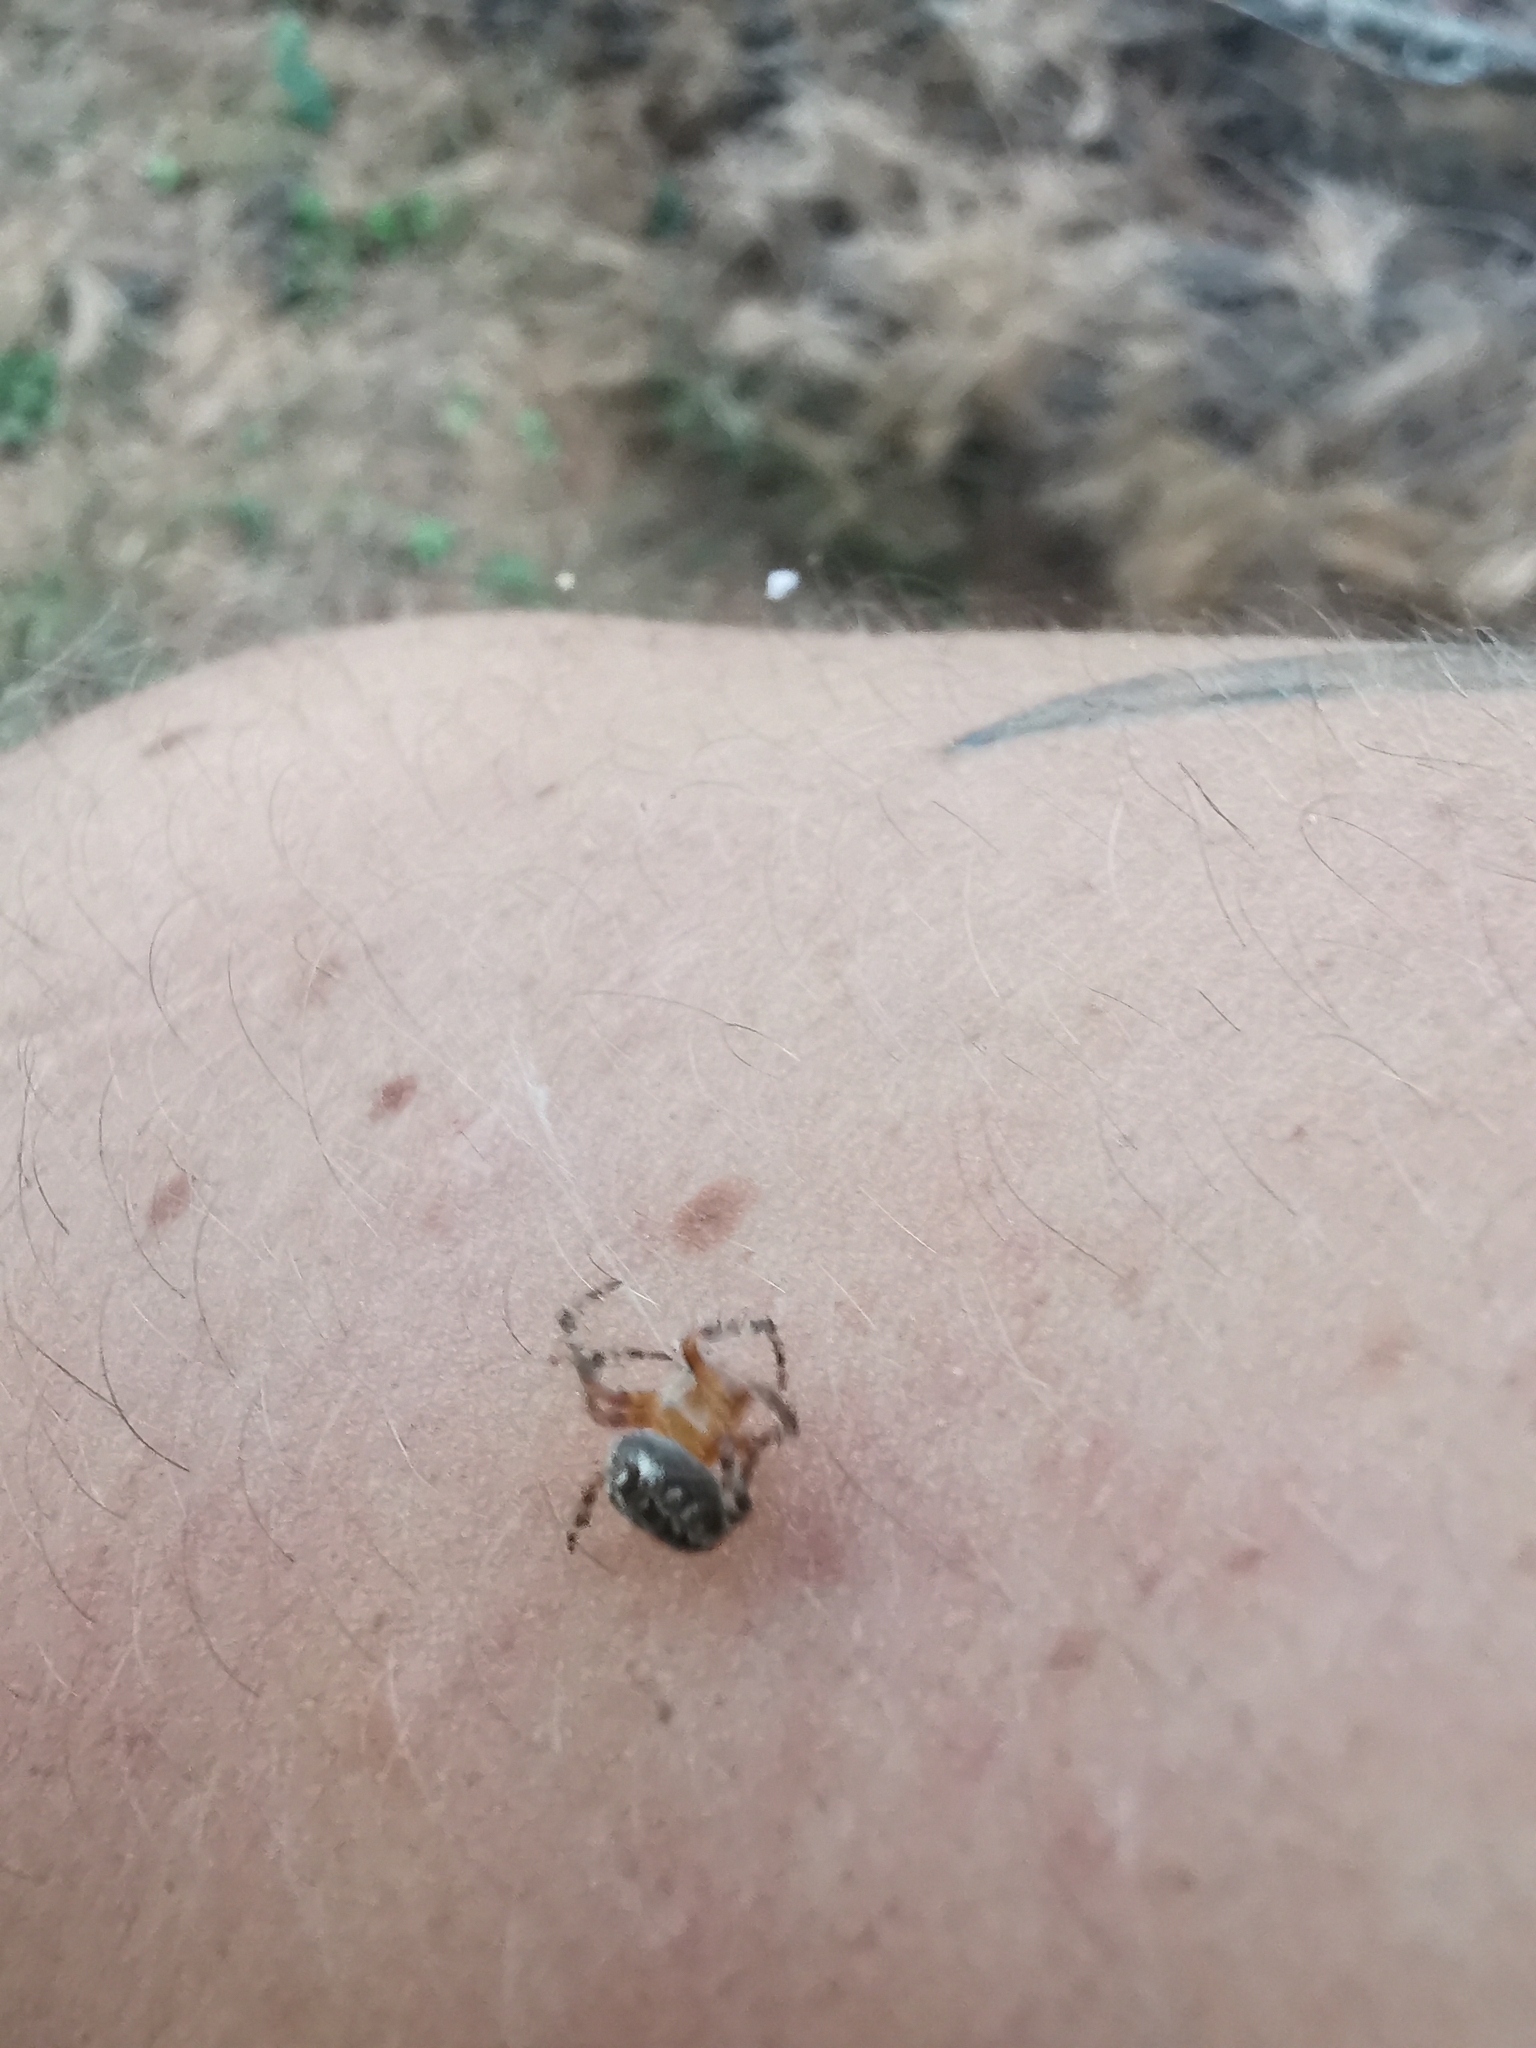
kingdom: Animalia
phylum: Arthropoda
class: Arachnida
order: Araneae
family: Araneidae
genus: Araneus
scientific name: Araneus diadematus
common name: Cross orbweaver
